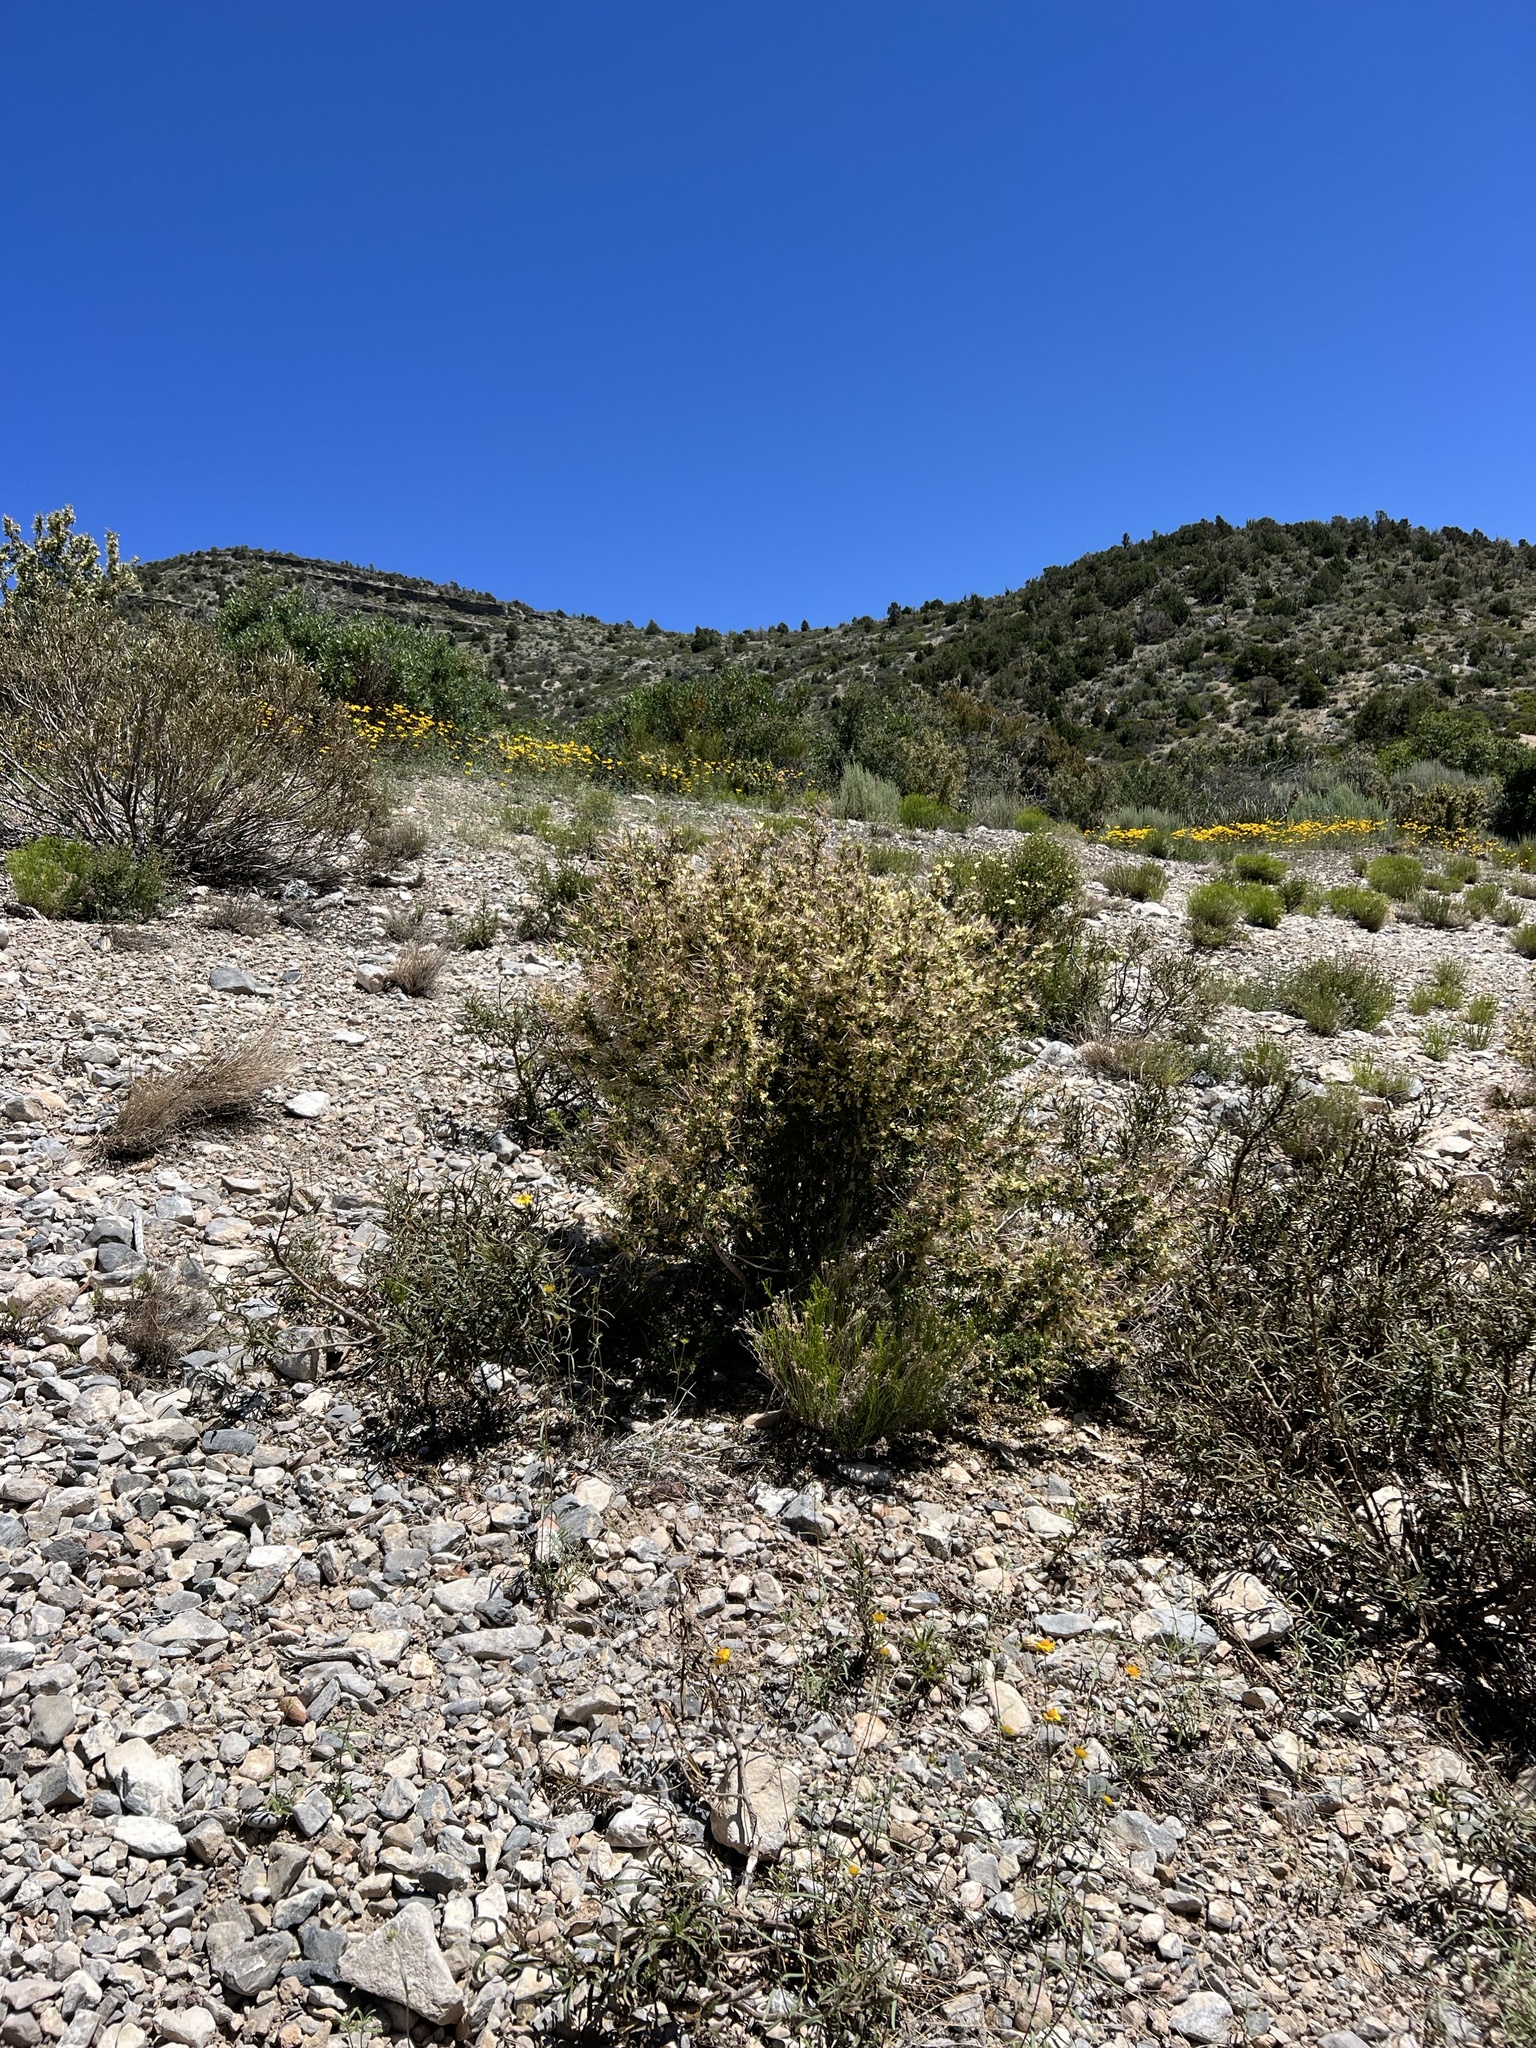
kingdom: Plantae
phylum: Tracheophyta
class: Magnoliopsida
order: Rosales
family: Rosaceae
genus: Purshia
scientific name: Purshia stansburiana
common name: Stansbury's cliffrose
